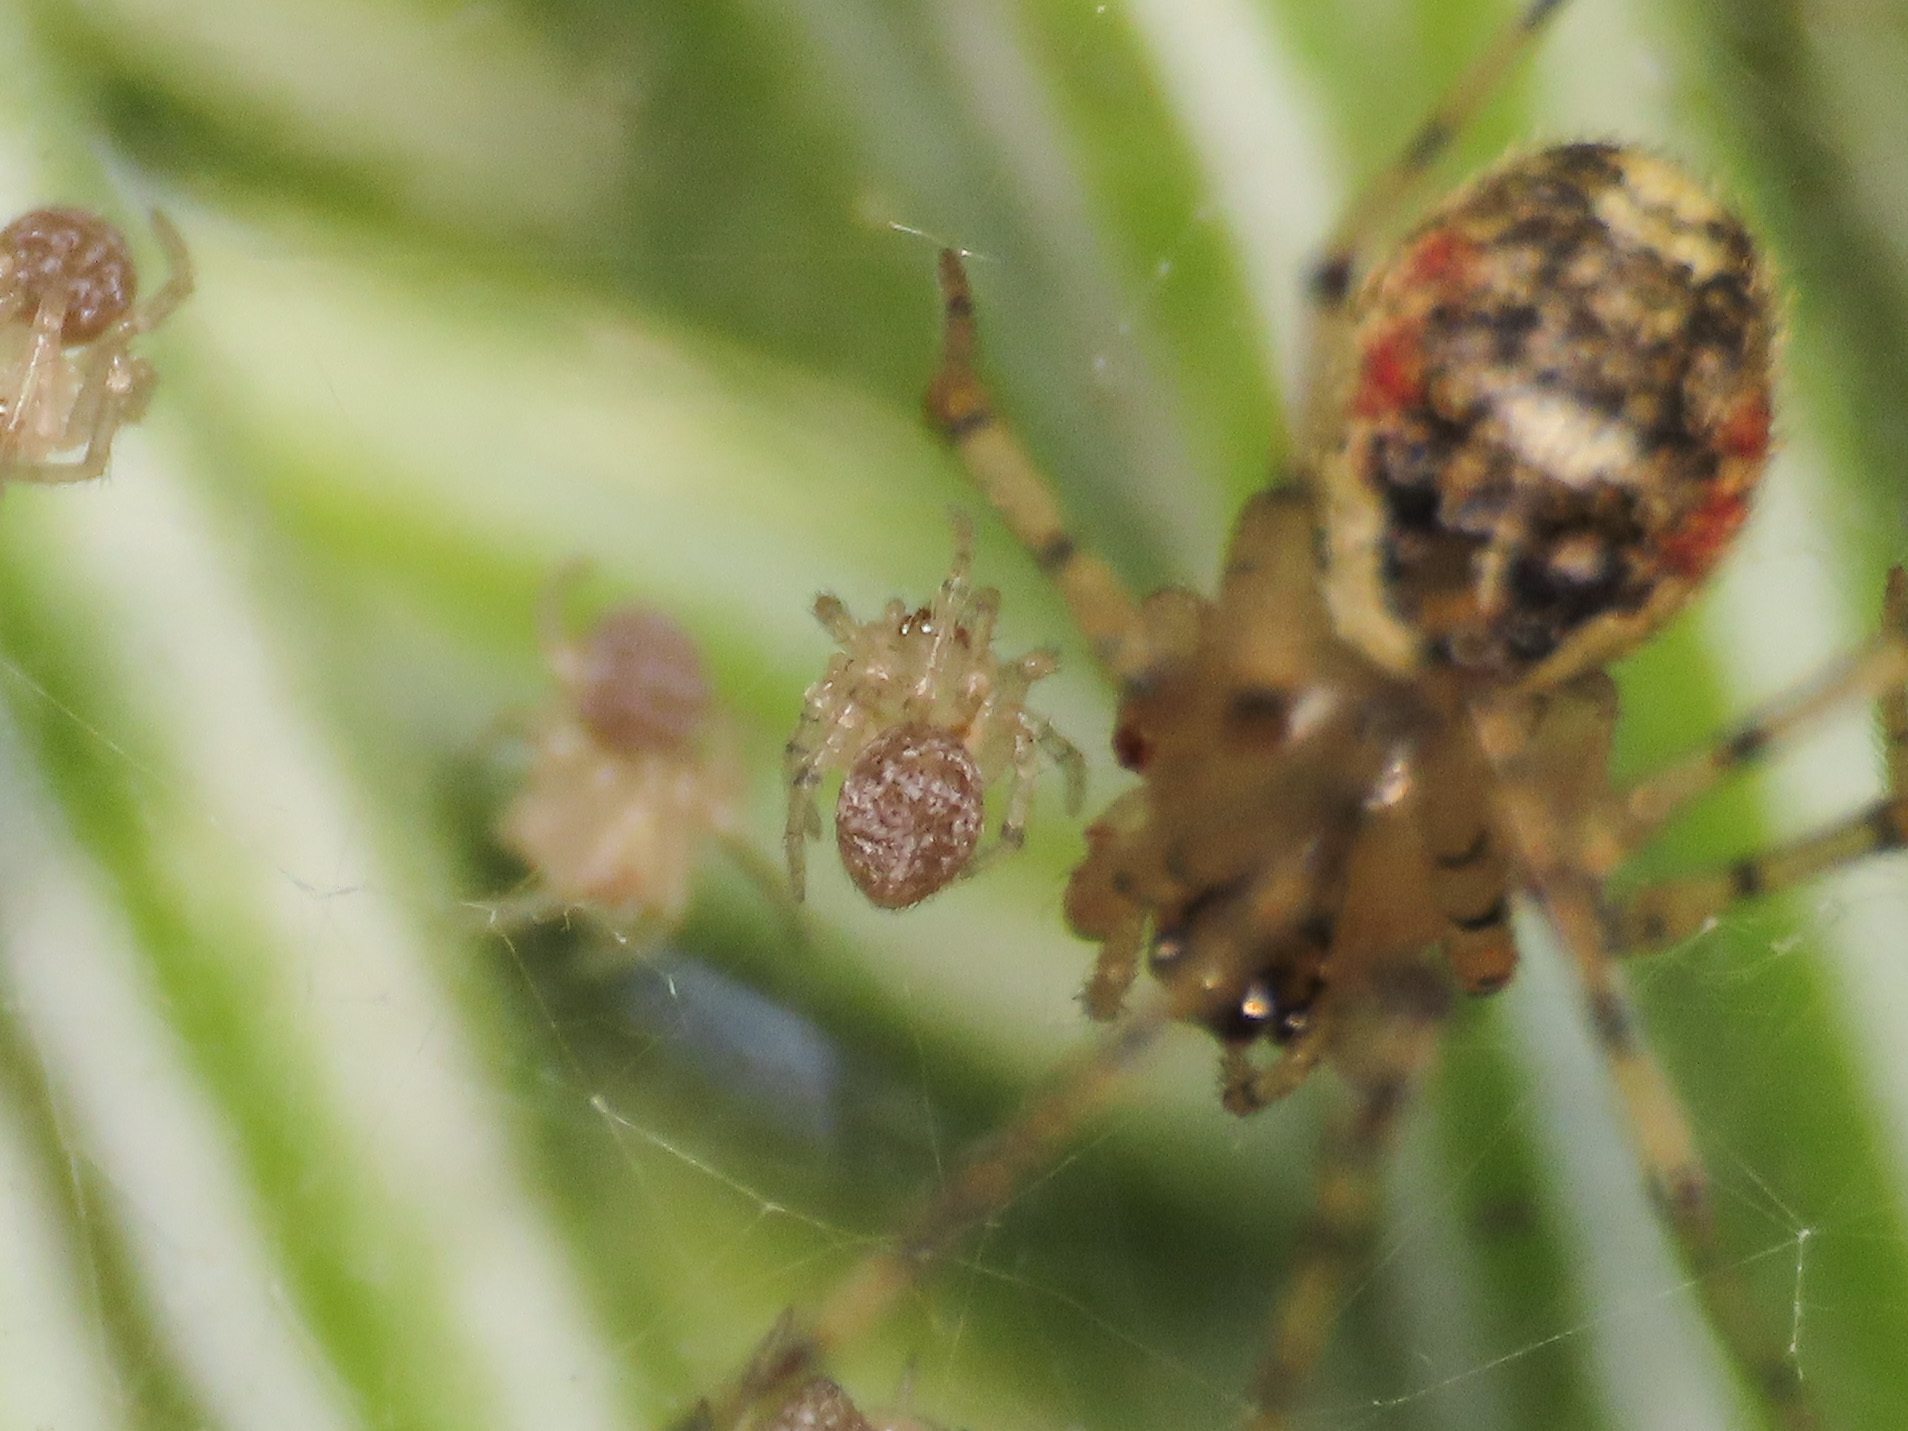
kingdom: Animalia
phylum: Arthropoda
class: Arachnida
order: Araneae
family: Theridiidae
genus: Platnickina
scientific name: Platnickina tincta
